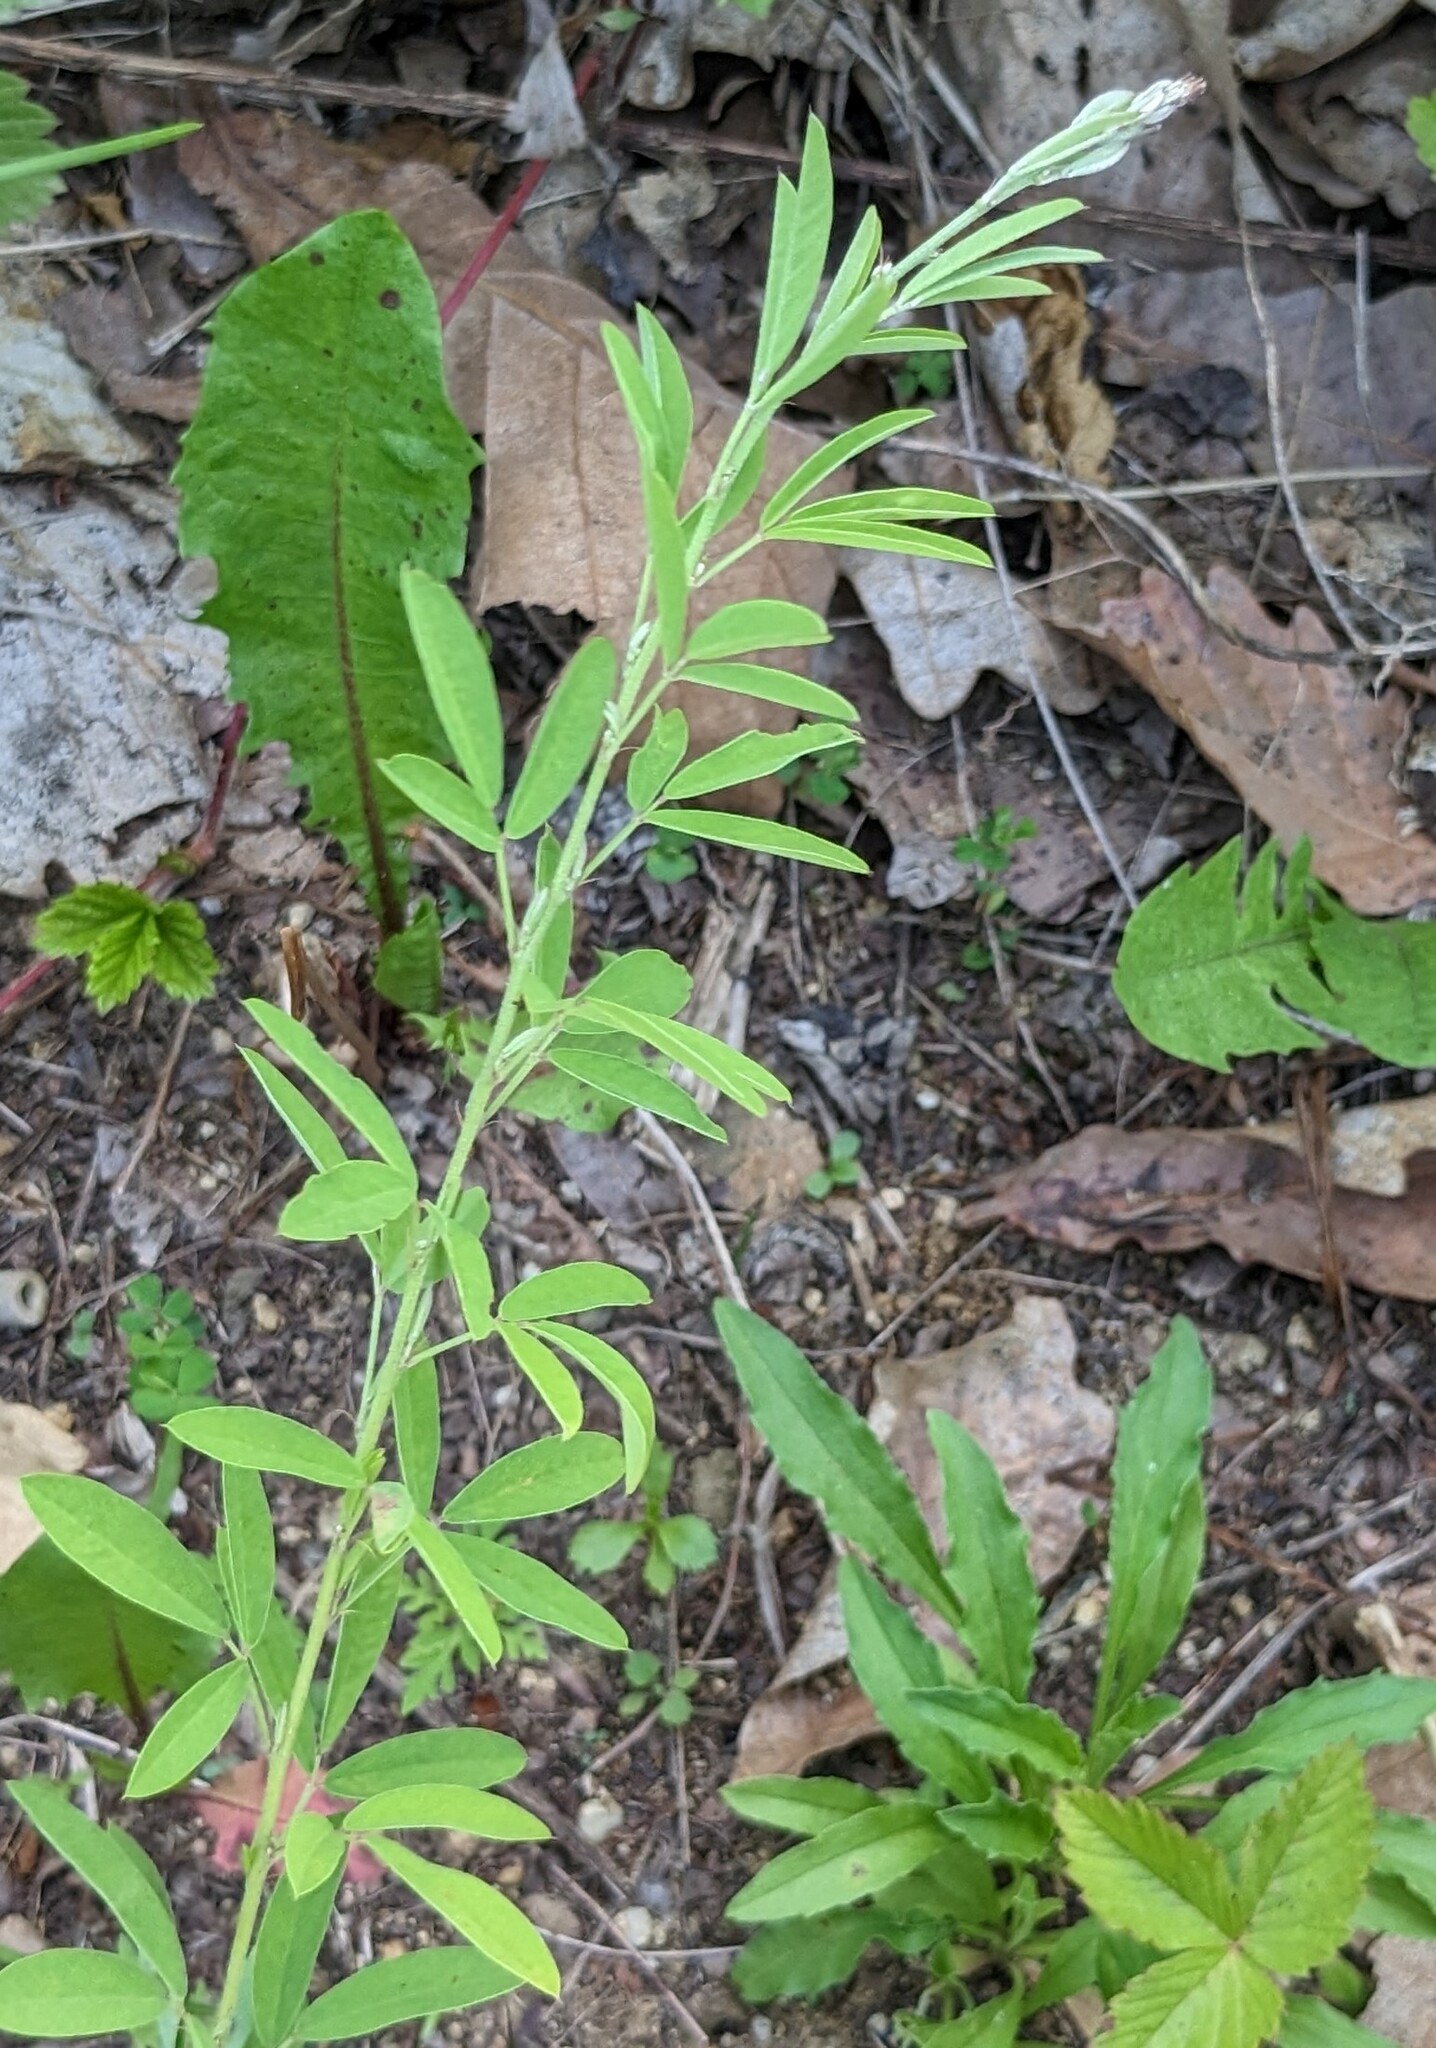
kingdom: Plantae
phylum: Tracheophyta
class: Magnoliopsida
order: Fabales
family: Fabaceae
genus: Lespedeza
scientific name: Lespedeza juncea
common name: Siberian lespedeza
